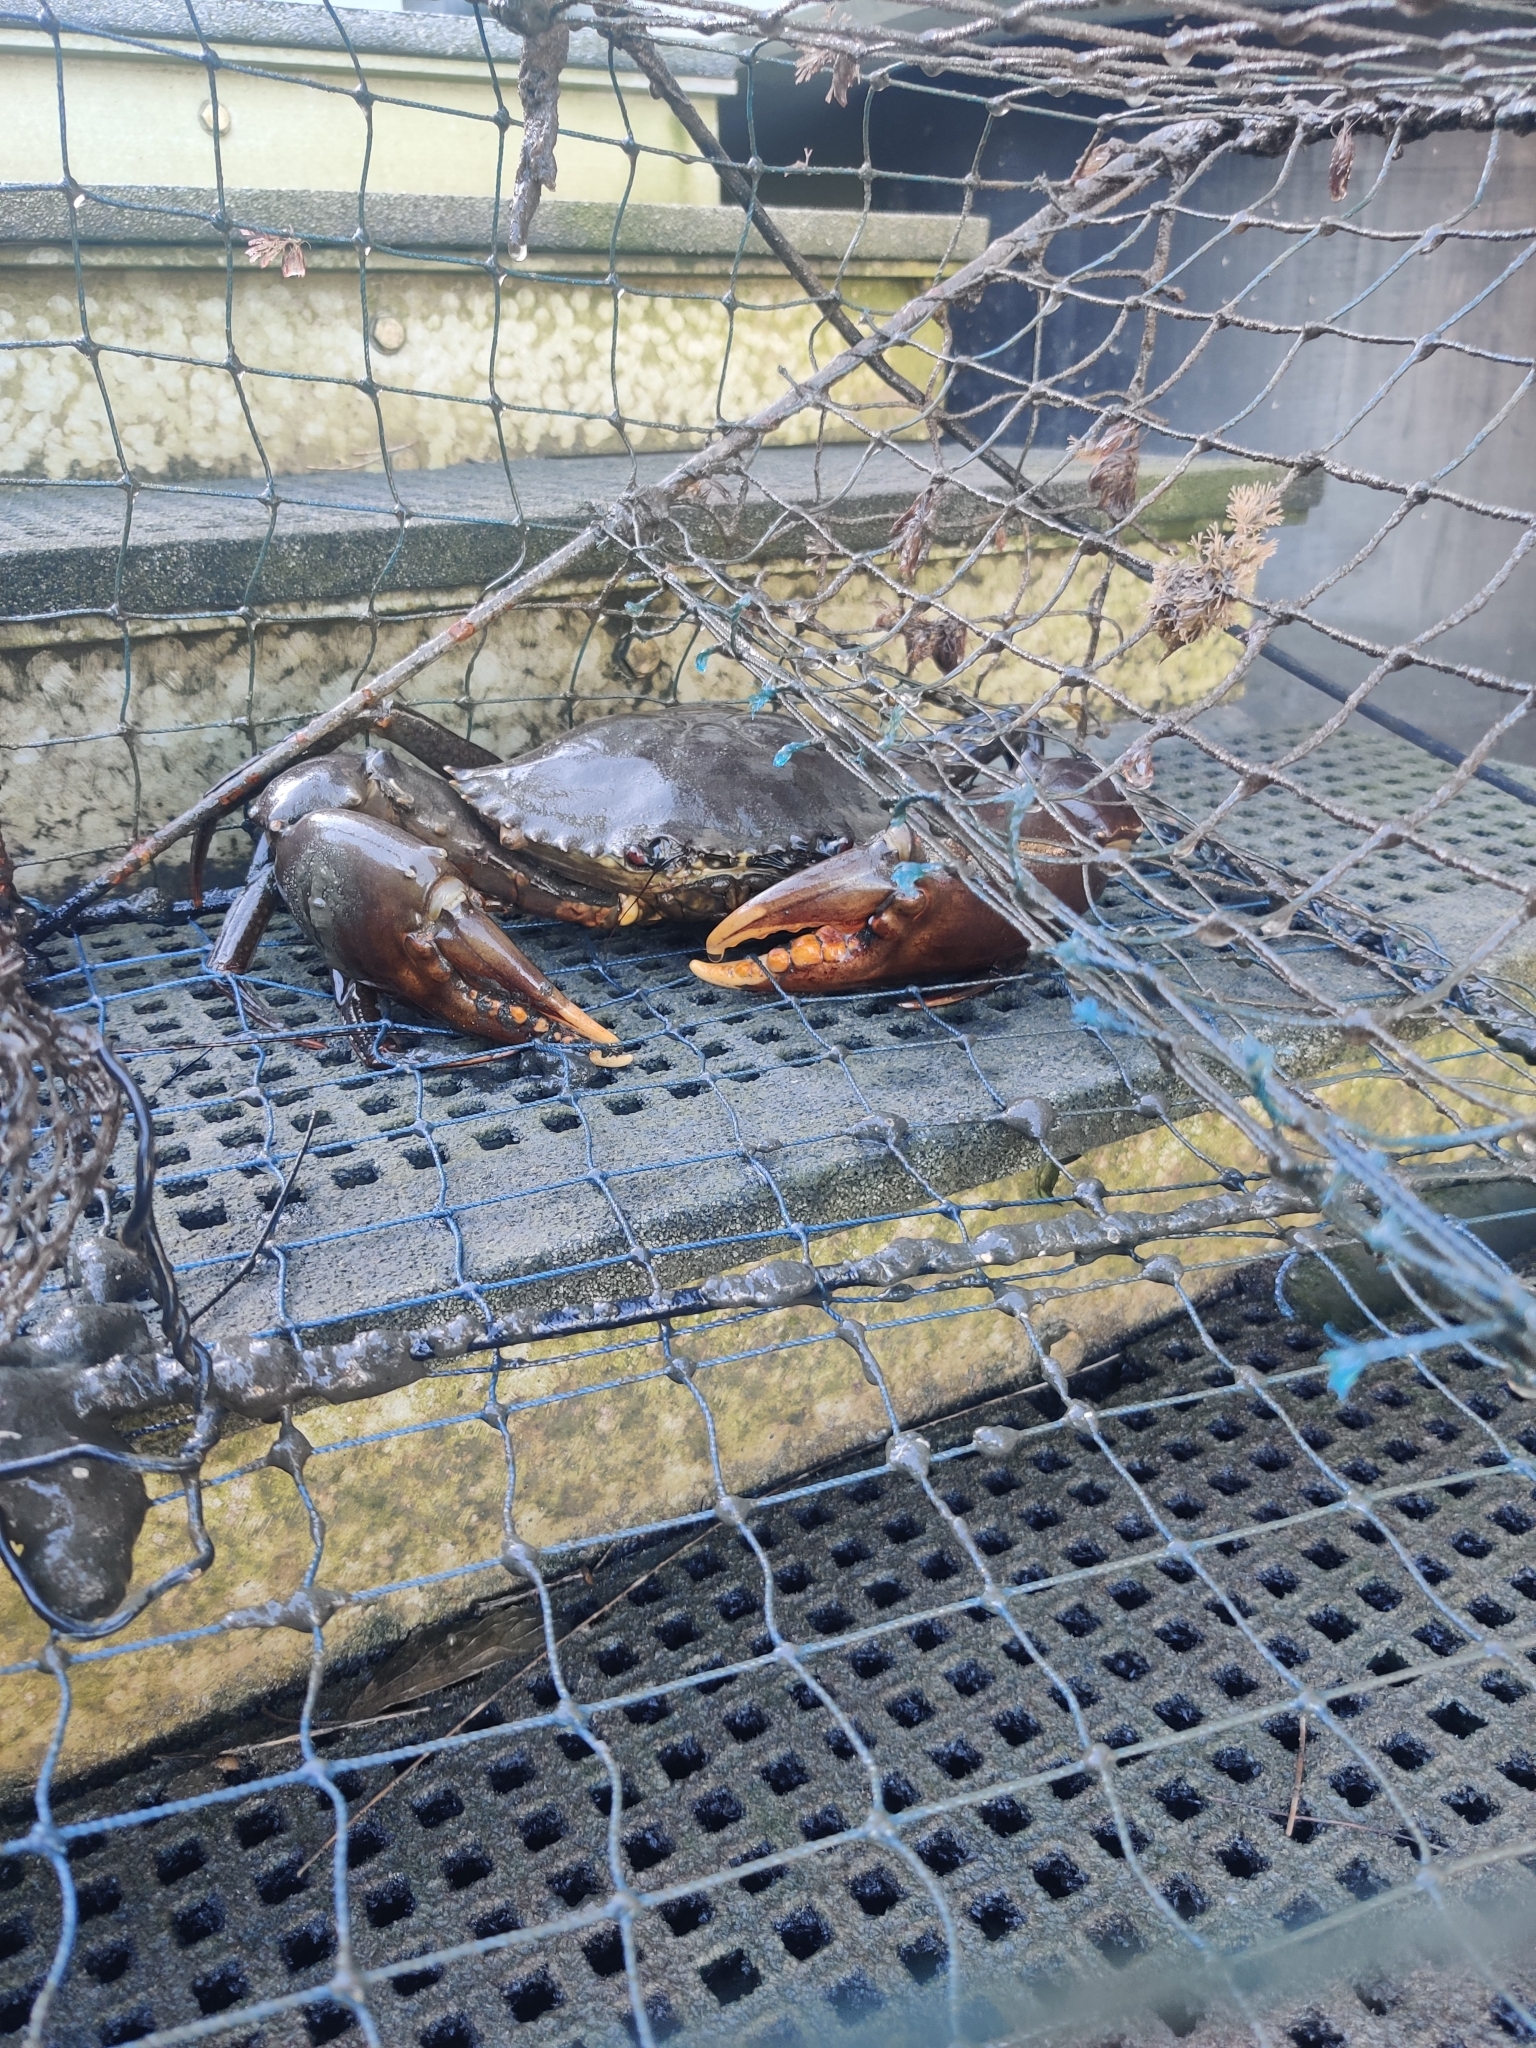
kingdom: Animalia
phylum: Arthropoda
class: Malacostraca
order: Decapoda
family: Portunidae
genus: Scylla
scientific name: Scylla serrata
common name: Giant mud crab
